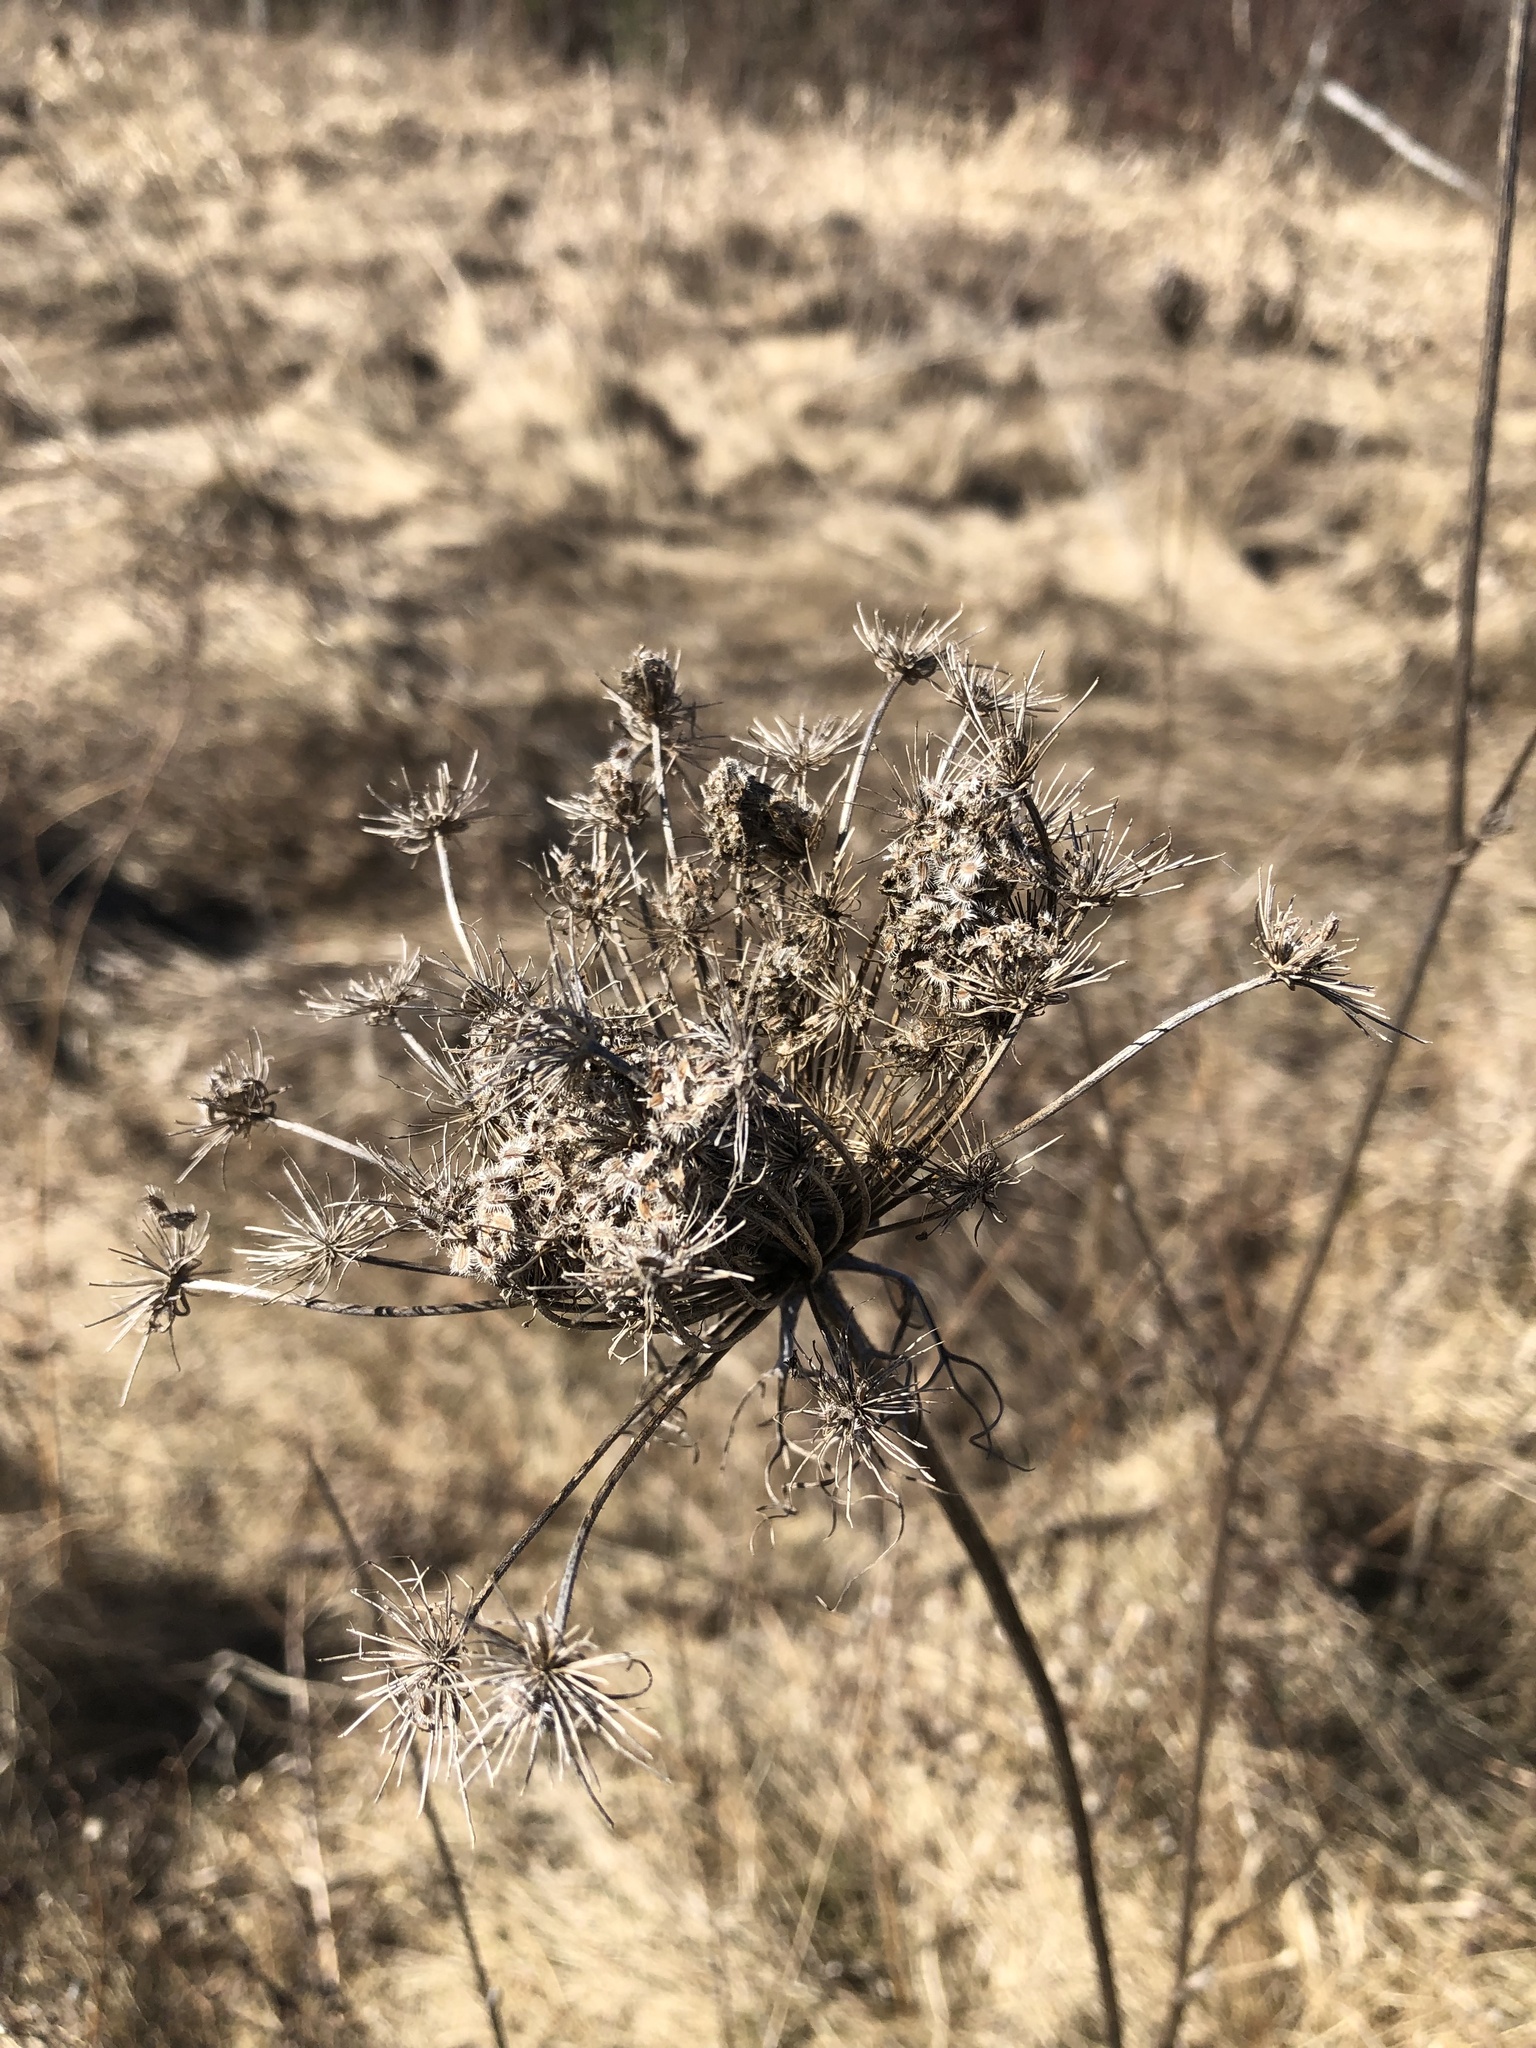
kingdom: Plantae
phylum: Tracheophyta
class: Magnoliopsida
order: Apiales
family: Apiaceae
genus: Daucus
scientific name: Daucus carota
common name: Wild carrot
